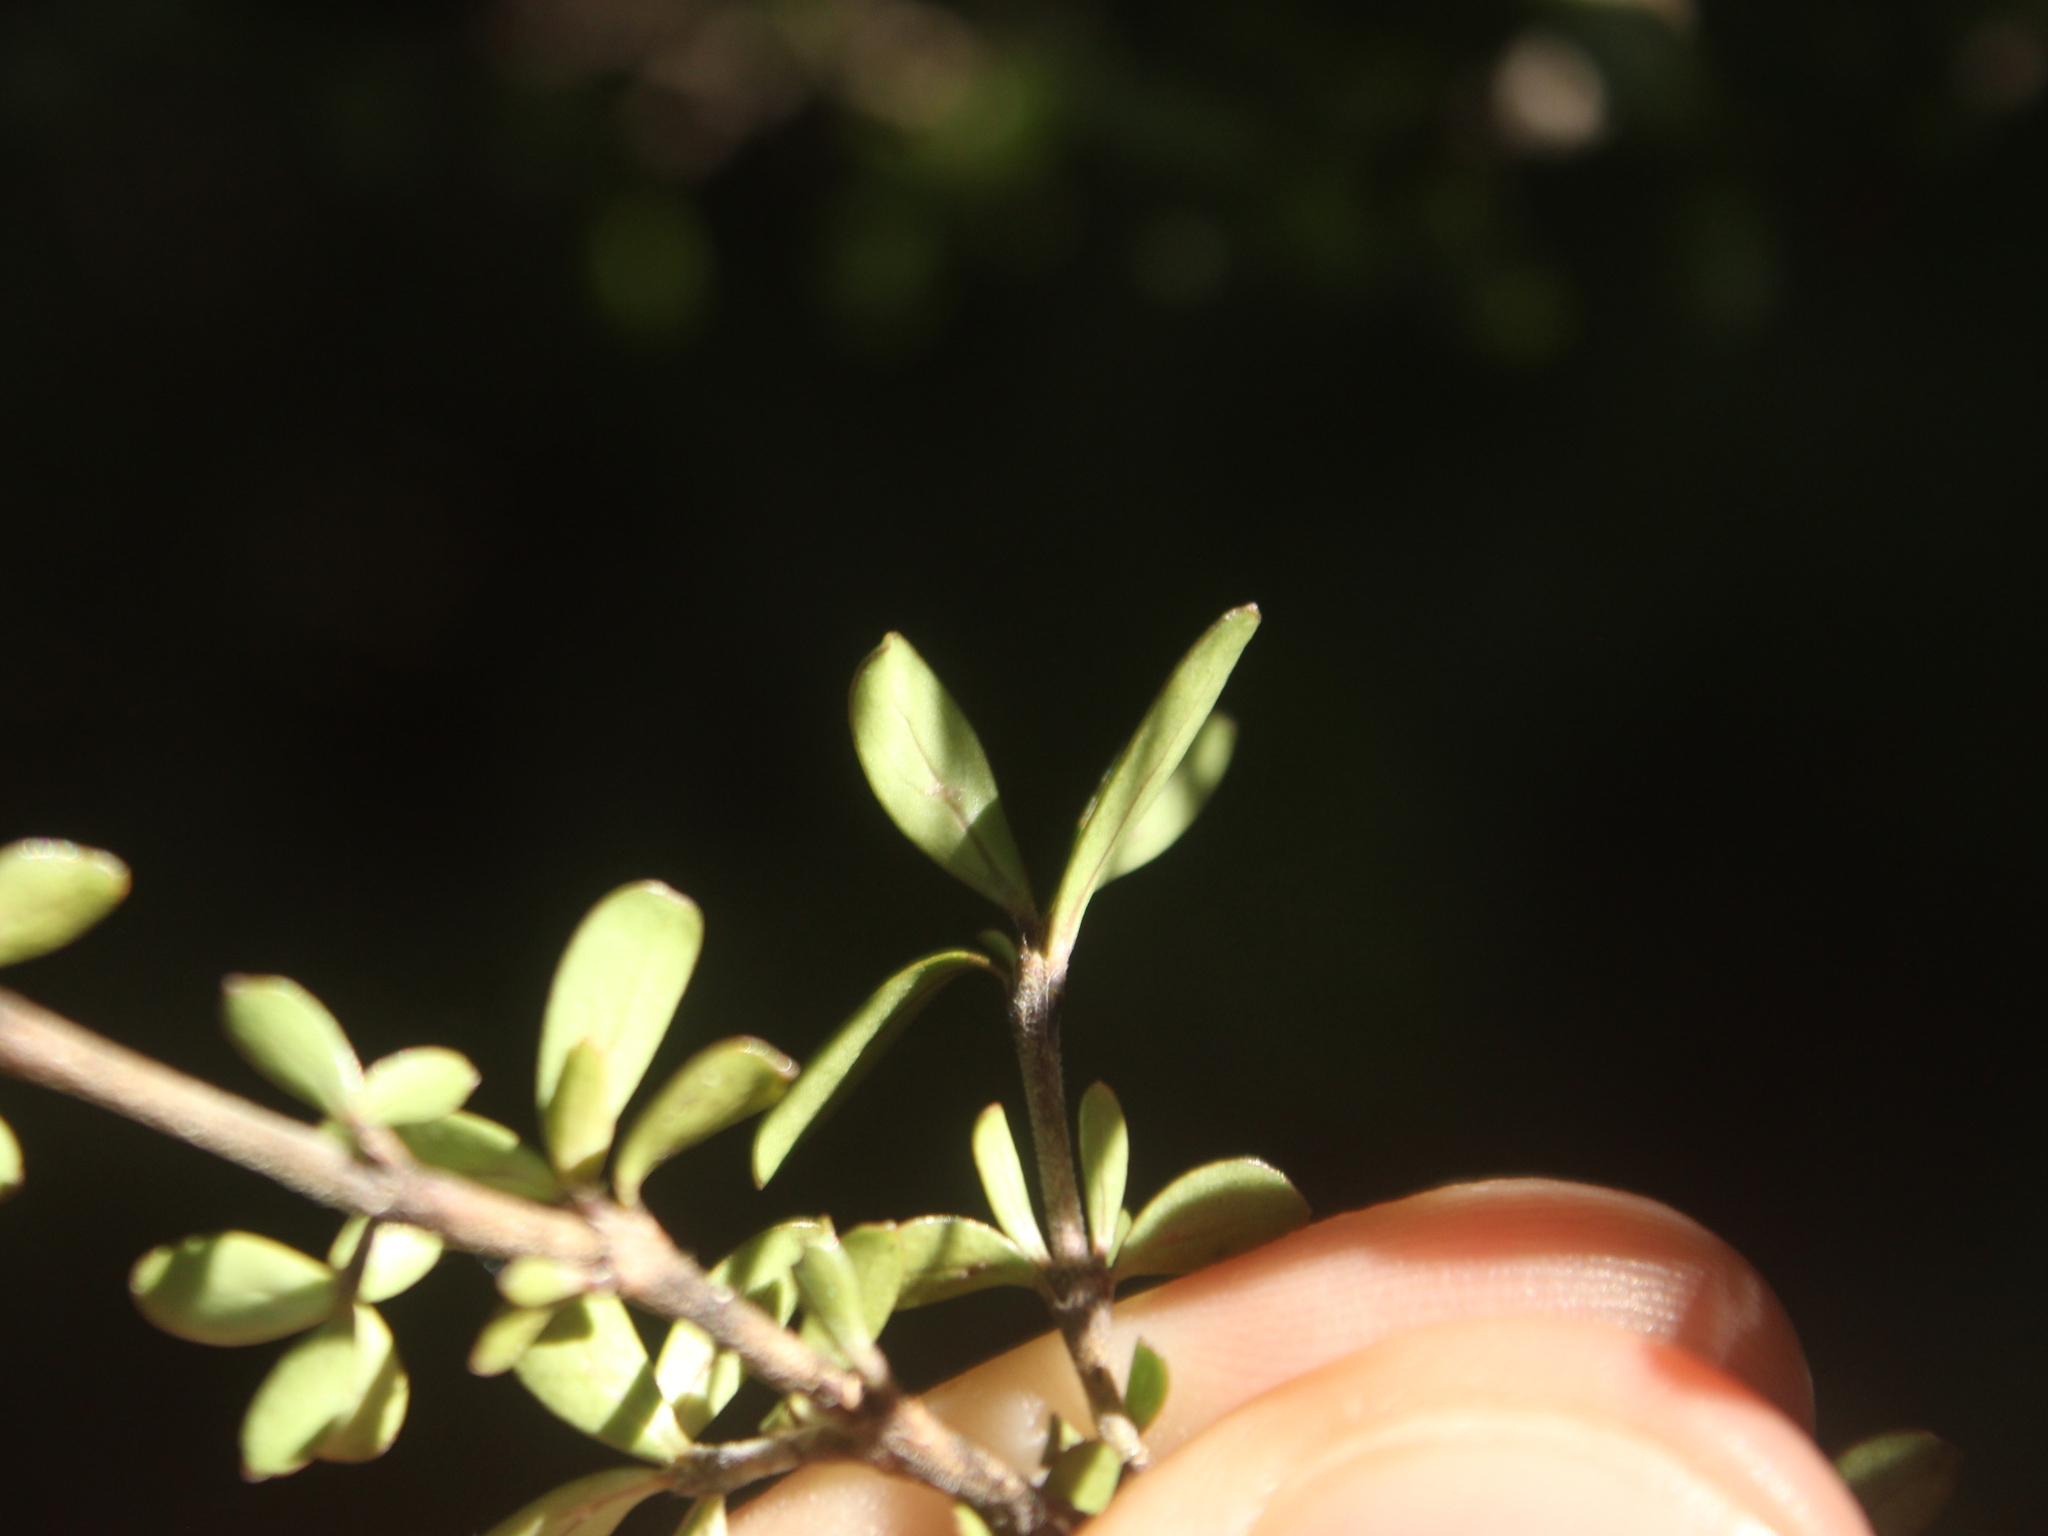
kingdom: Plantae
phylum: Tracheophyta
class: Magnoliopsida
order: Gentianales
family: Rubiaceae
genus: Coprosma
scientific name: Coprosma dumosa
